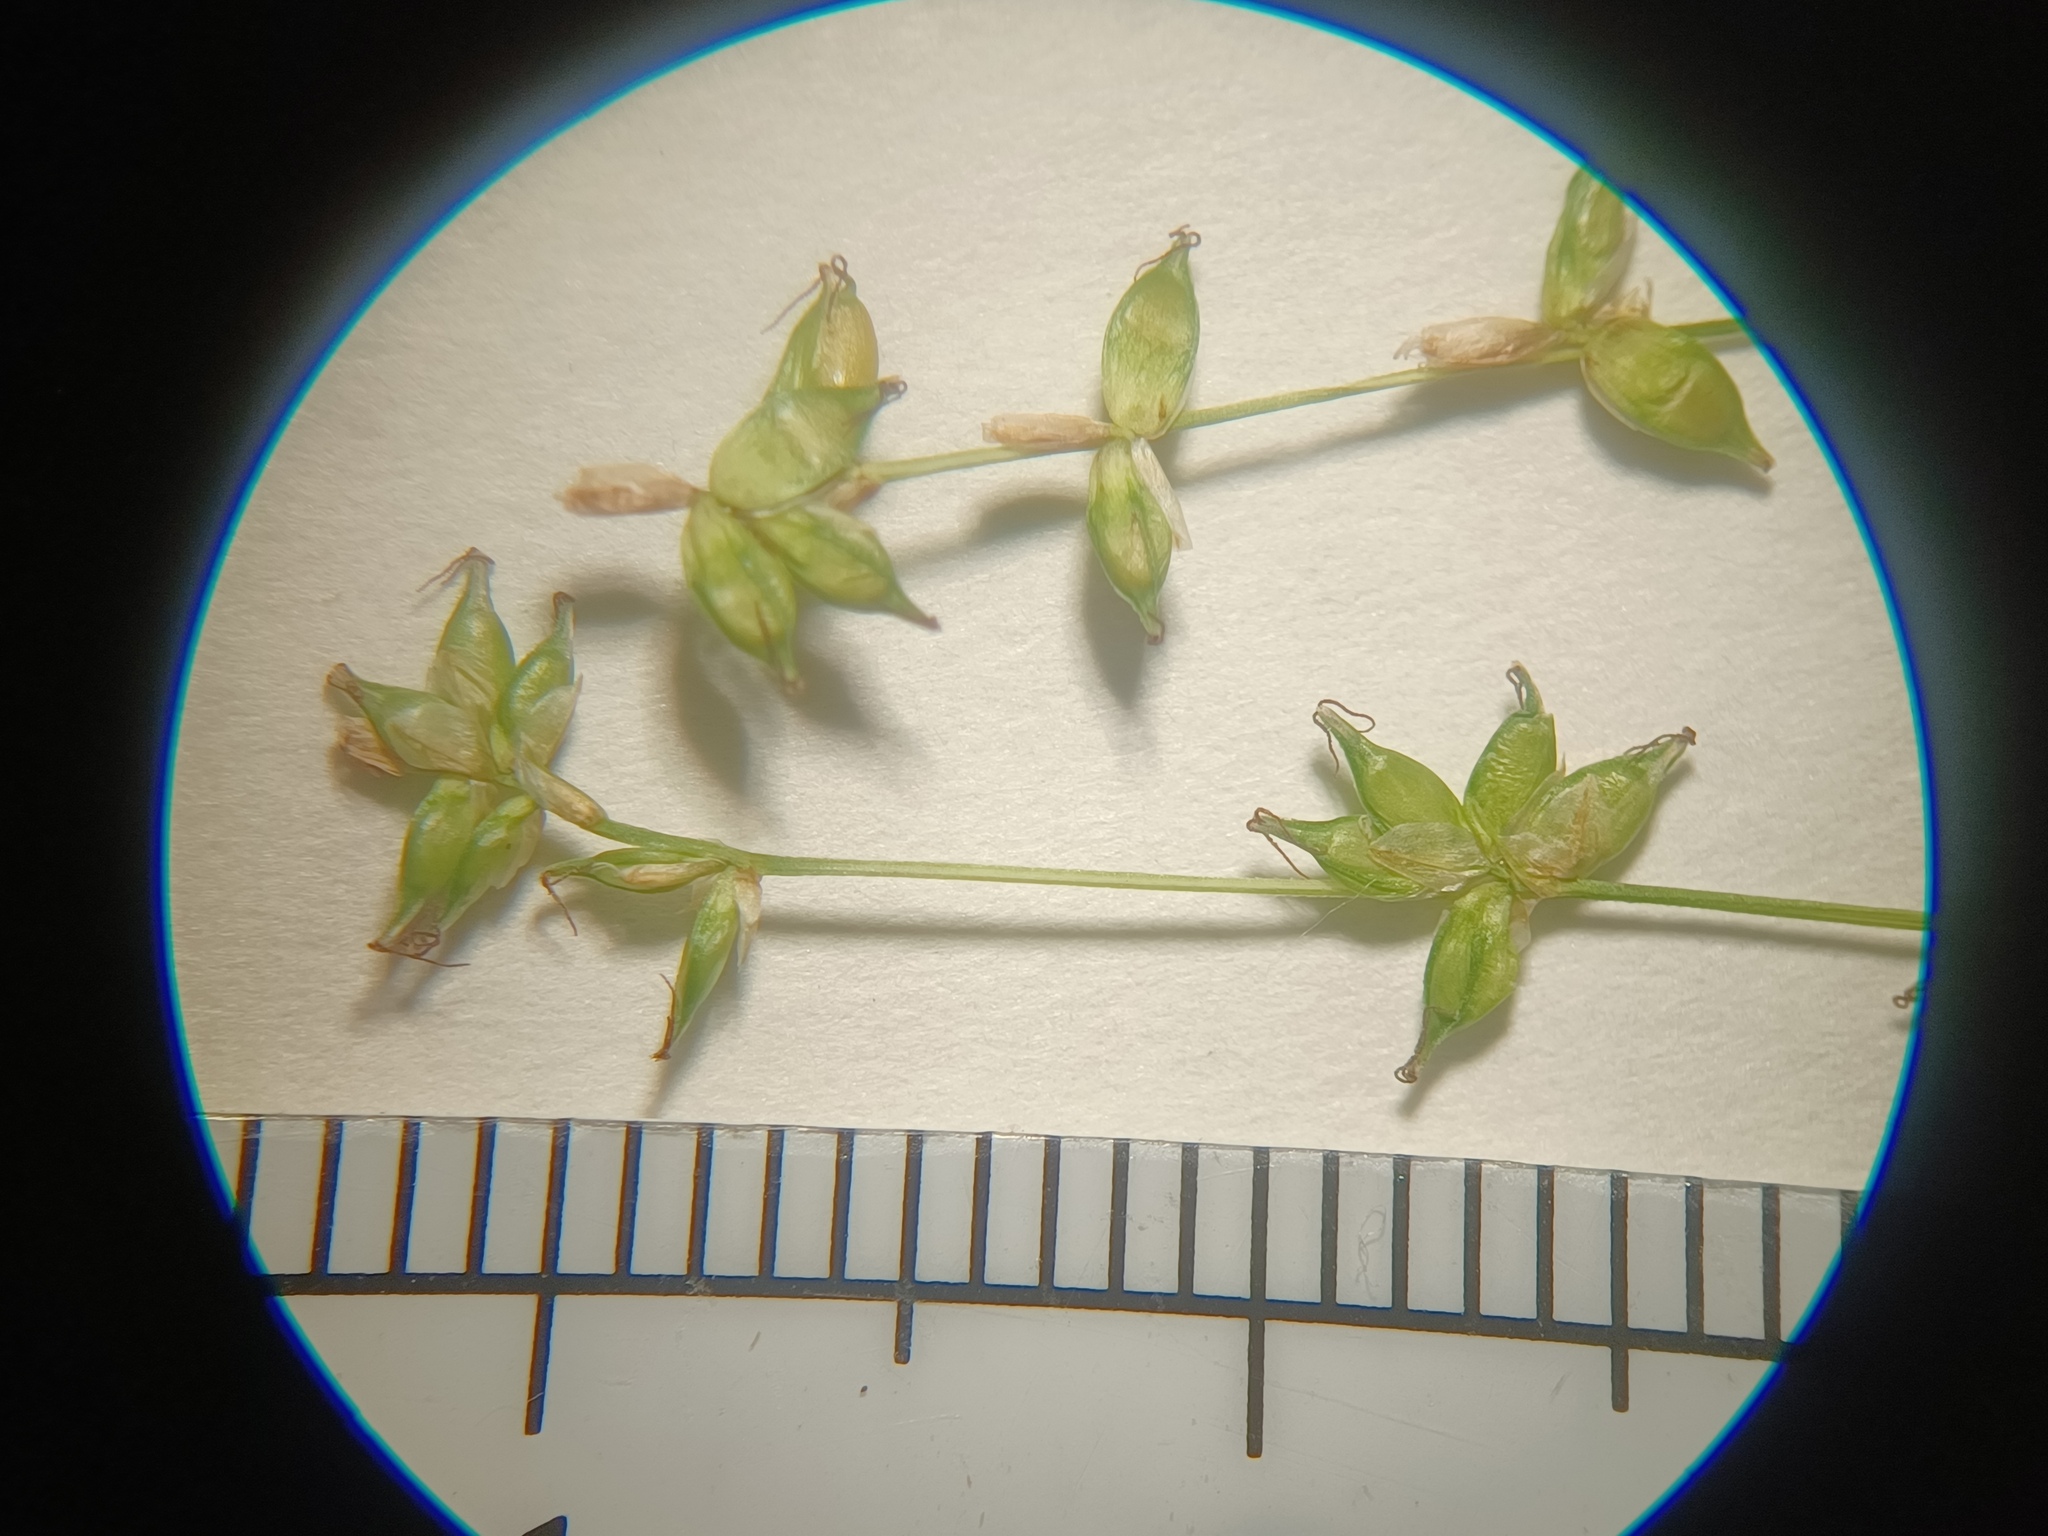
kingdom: Plantae
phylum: Tracheophyta
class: Liliopsida
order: Poales
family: Cyperaceae
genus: Carex
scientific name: Carex radiata
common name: Eastern star sedge
